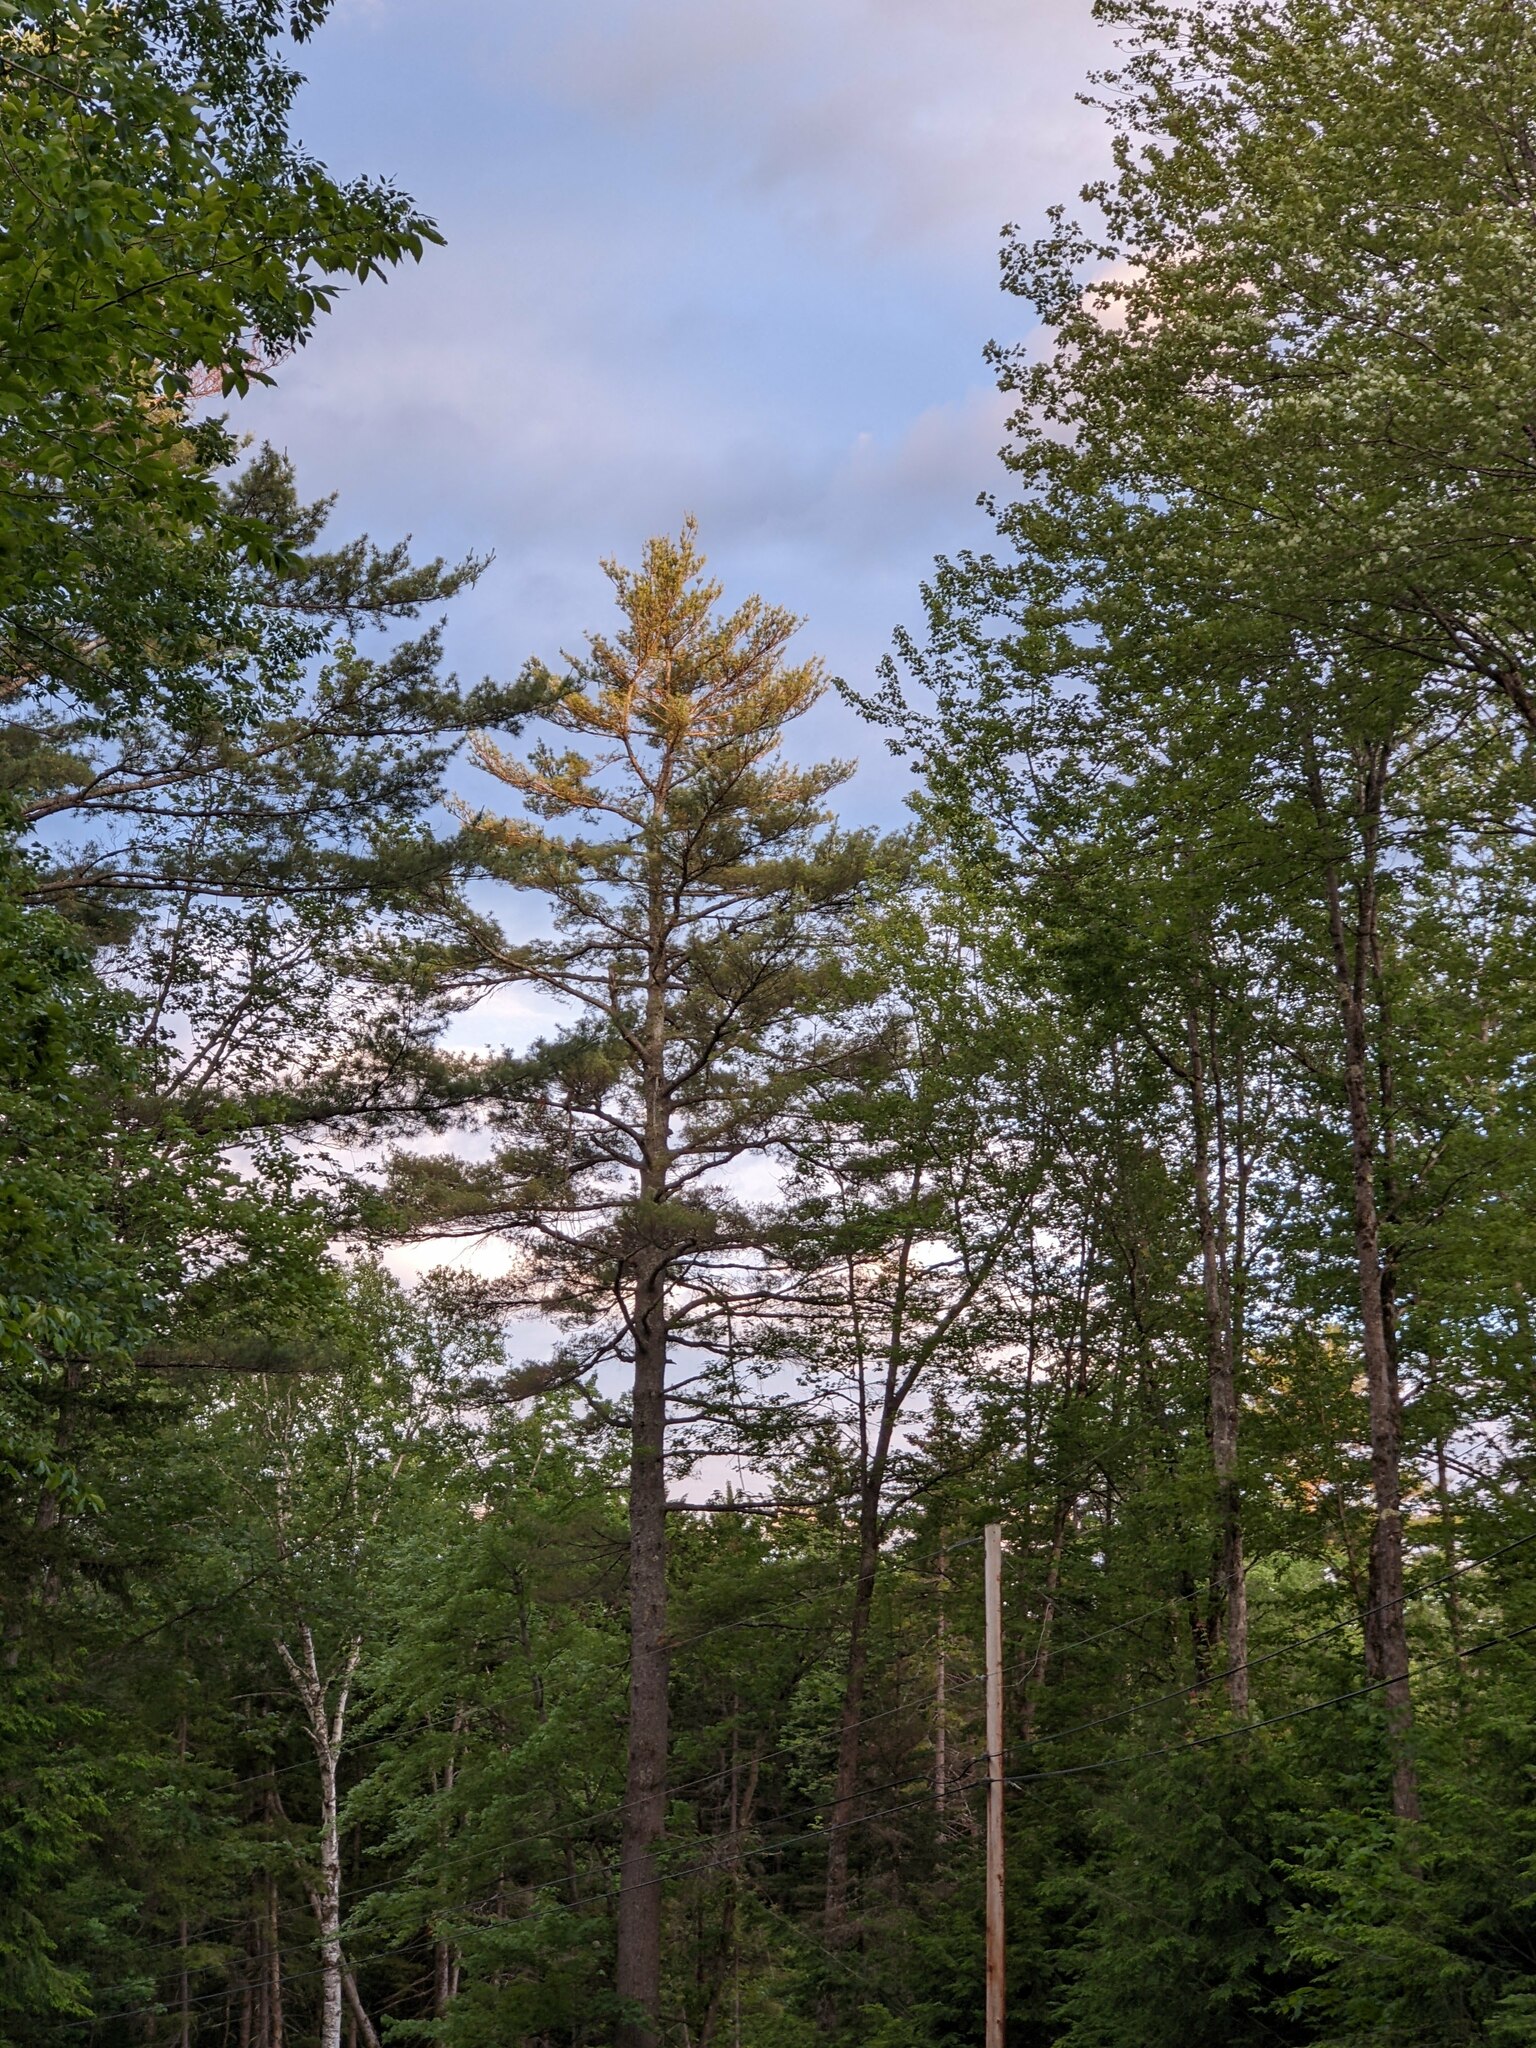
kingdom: Plantae
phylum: Tracheophyta
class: Pinopsida
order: Pinales
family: Pinaceae
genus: Pinus
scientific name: Pinus strobus
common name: Weymouth pine
